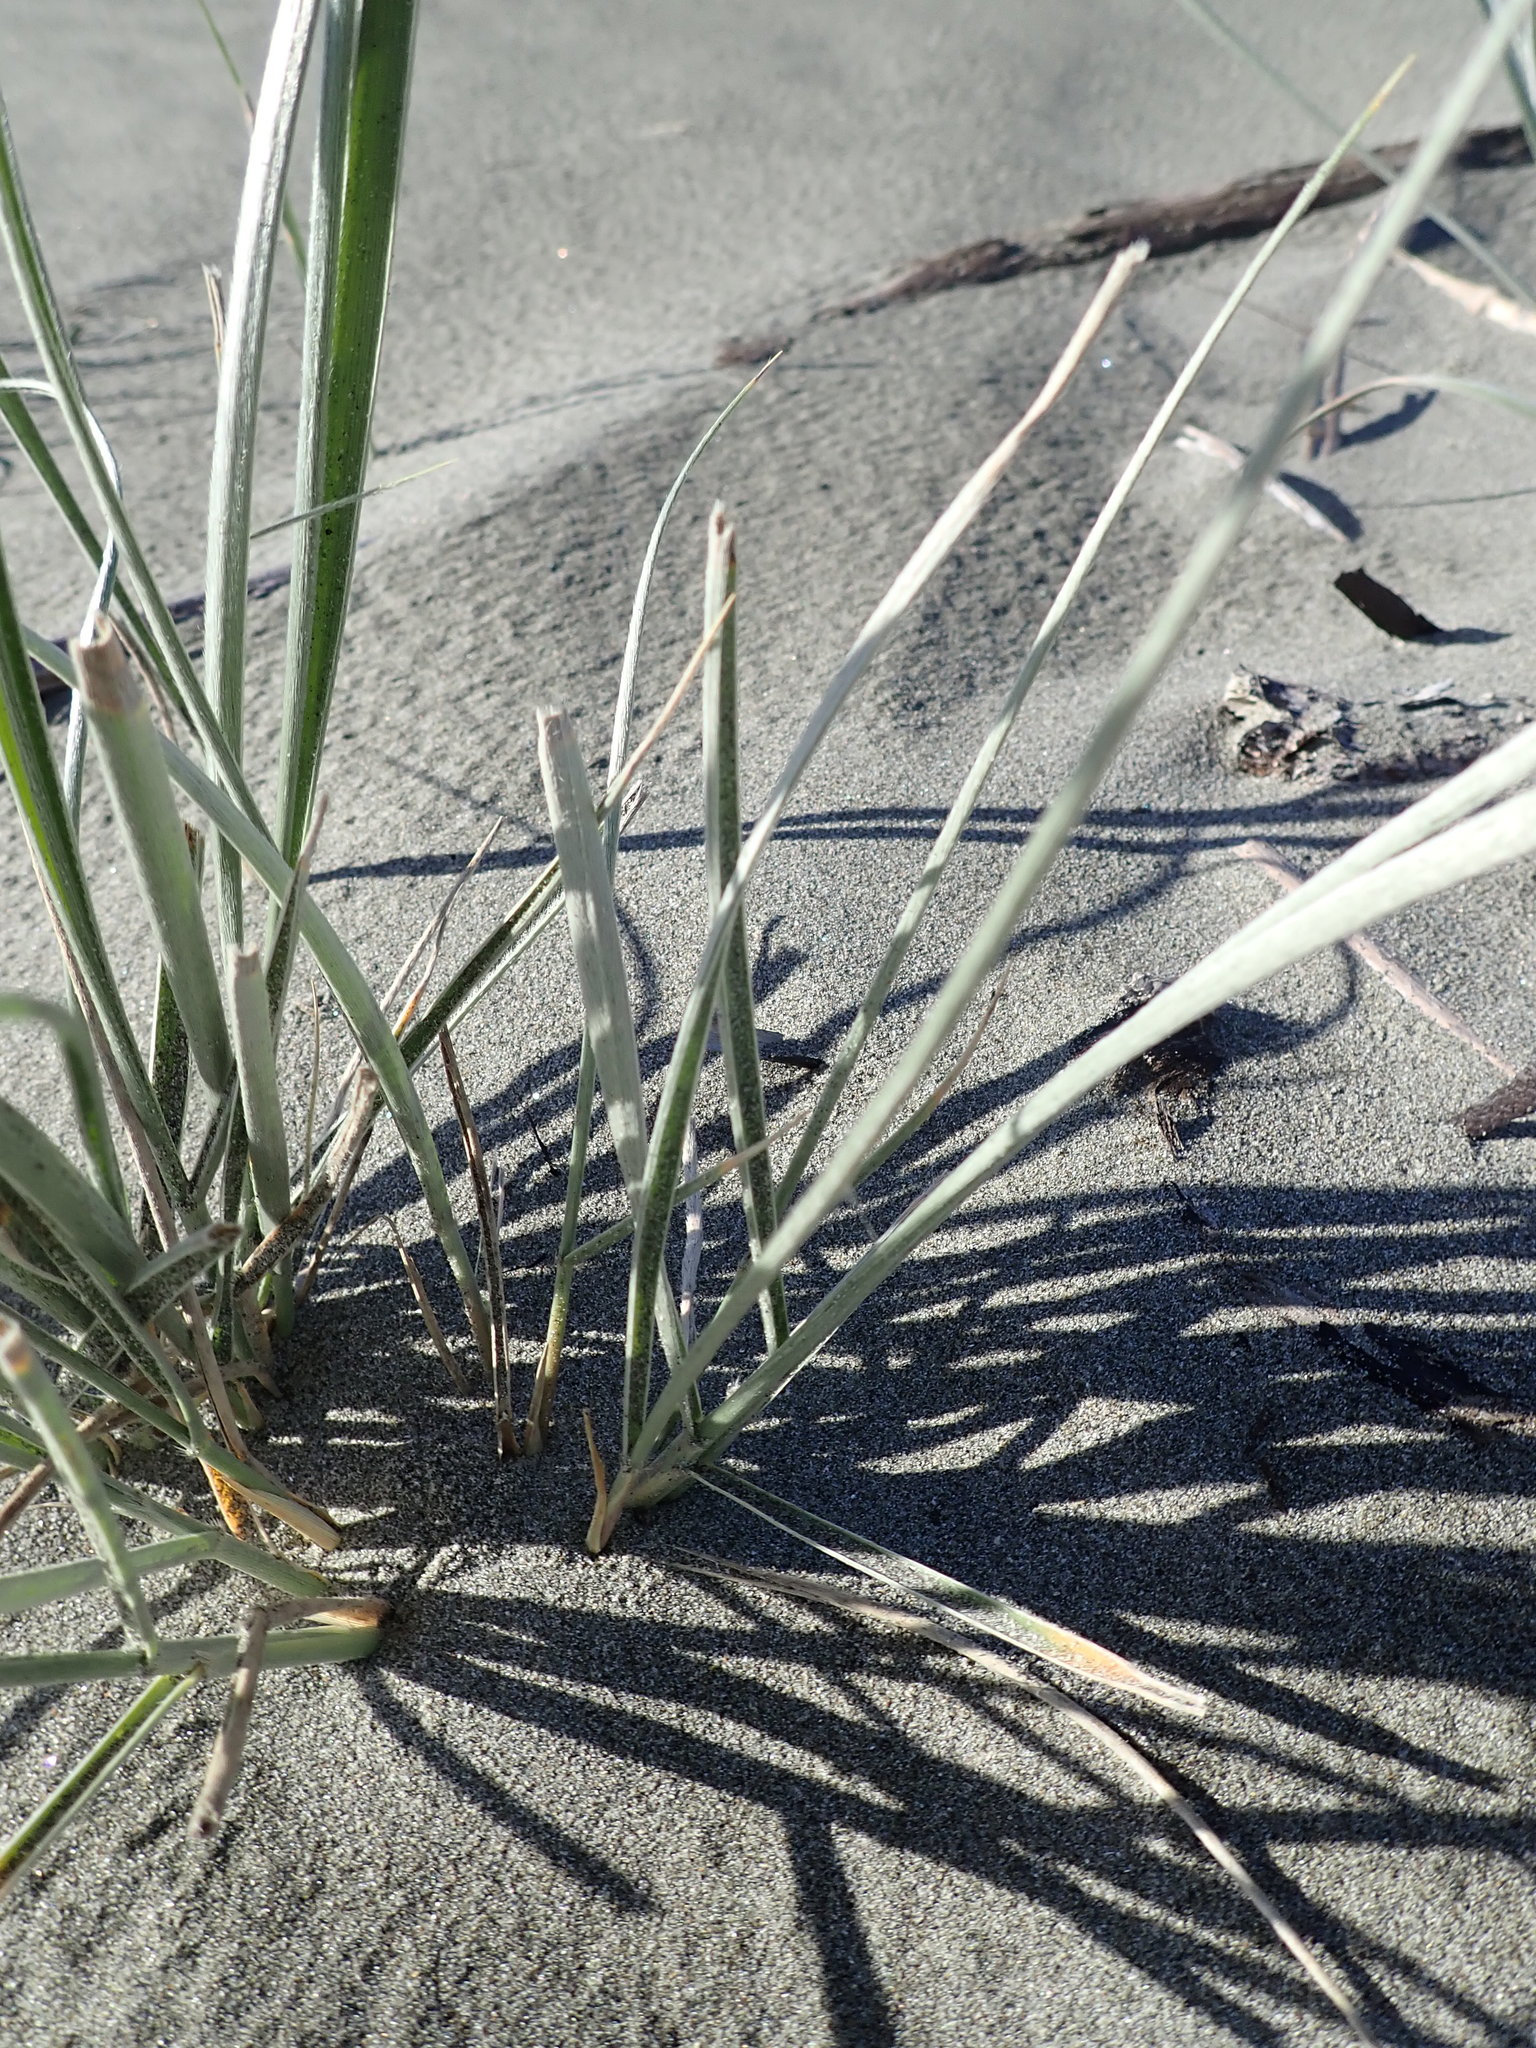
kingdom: Plantae
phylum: Tracheophyta
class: Liliopsida
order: Poales
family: Poaceae
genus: Spinifex
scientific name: Spinifex sericeus
